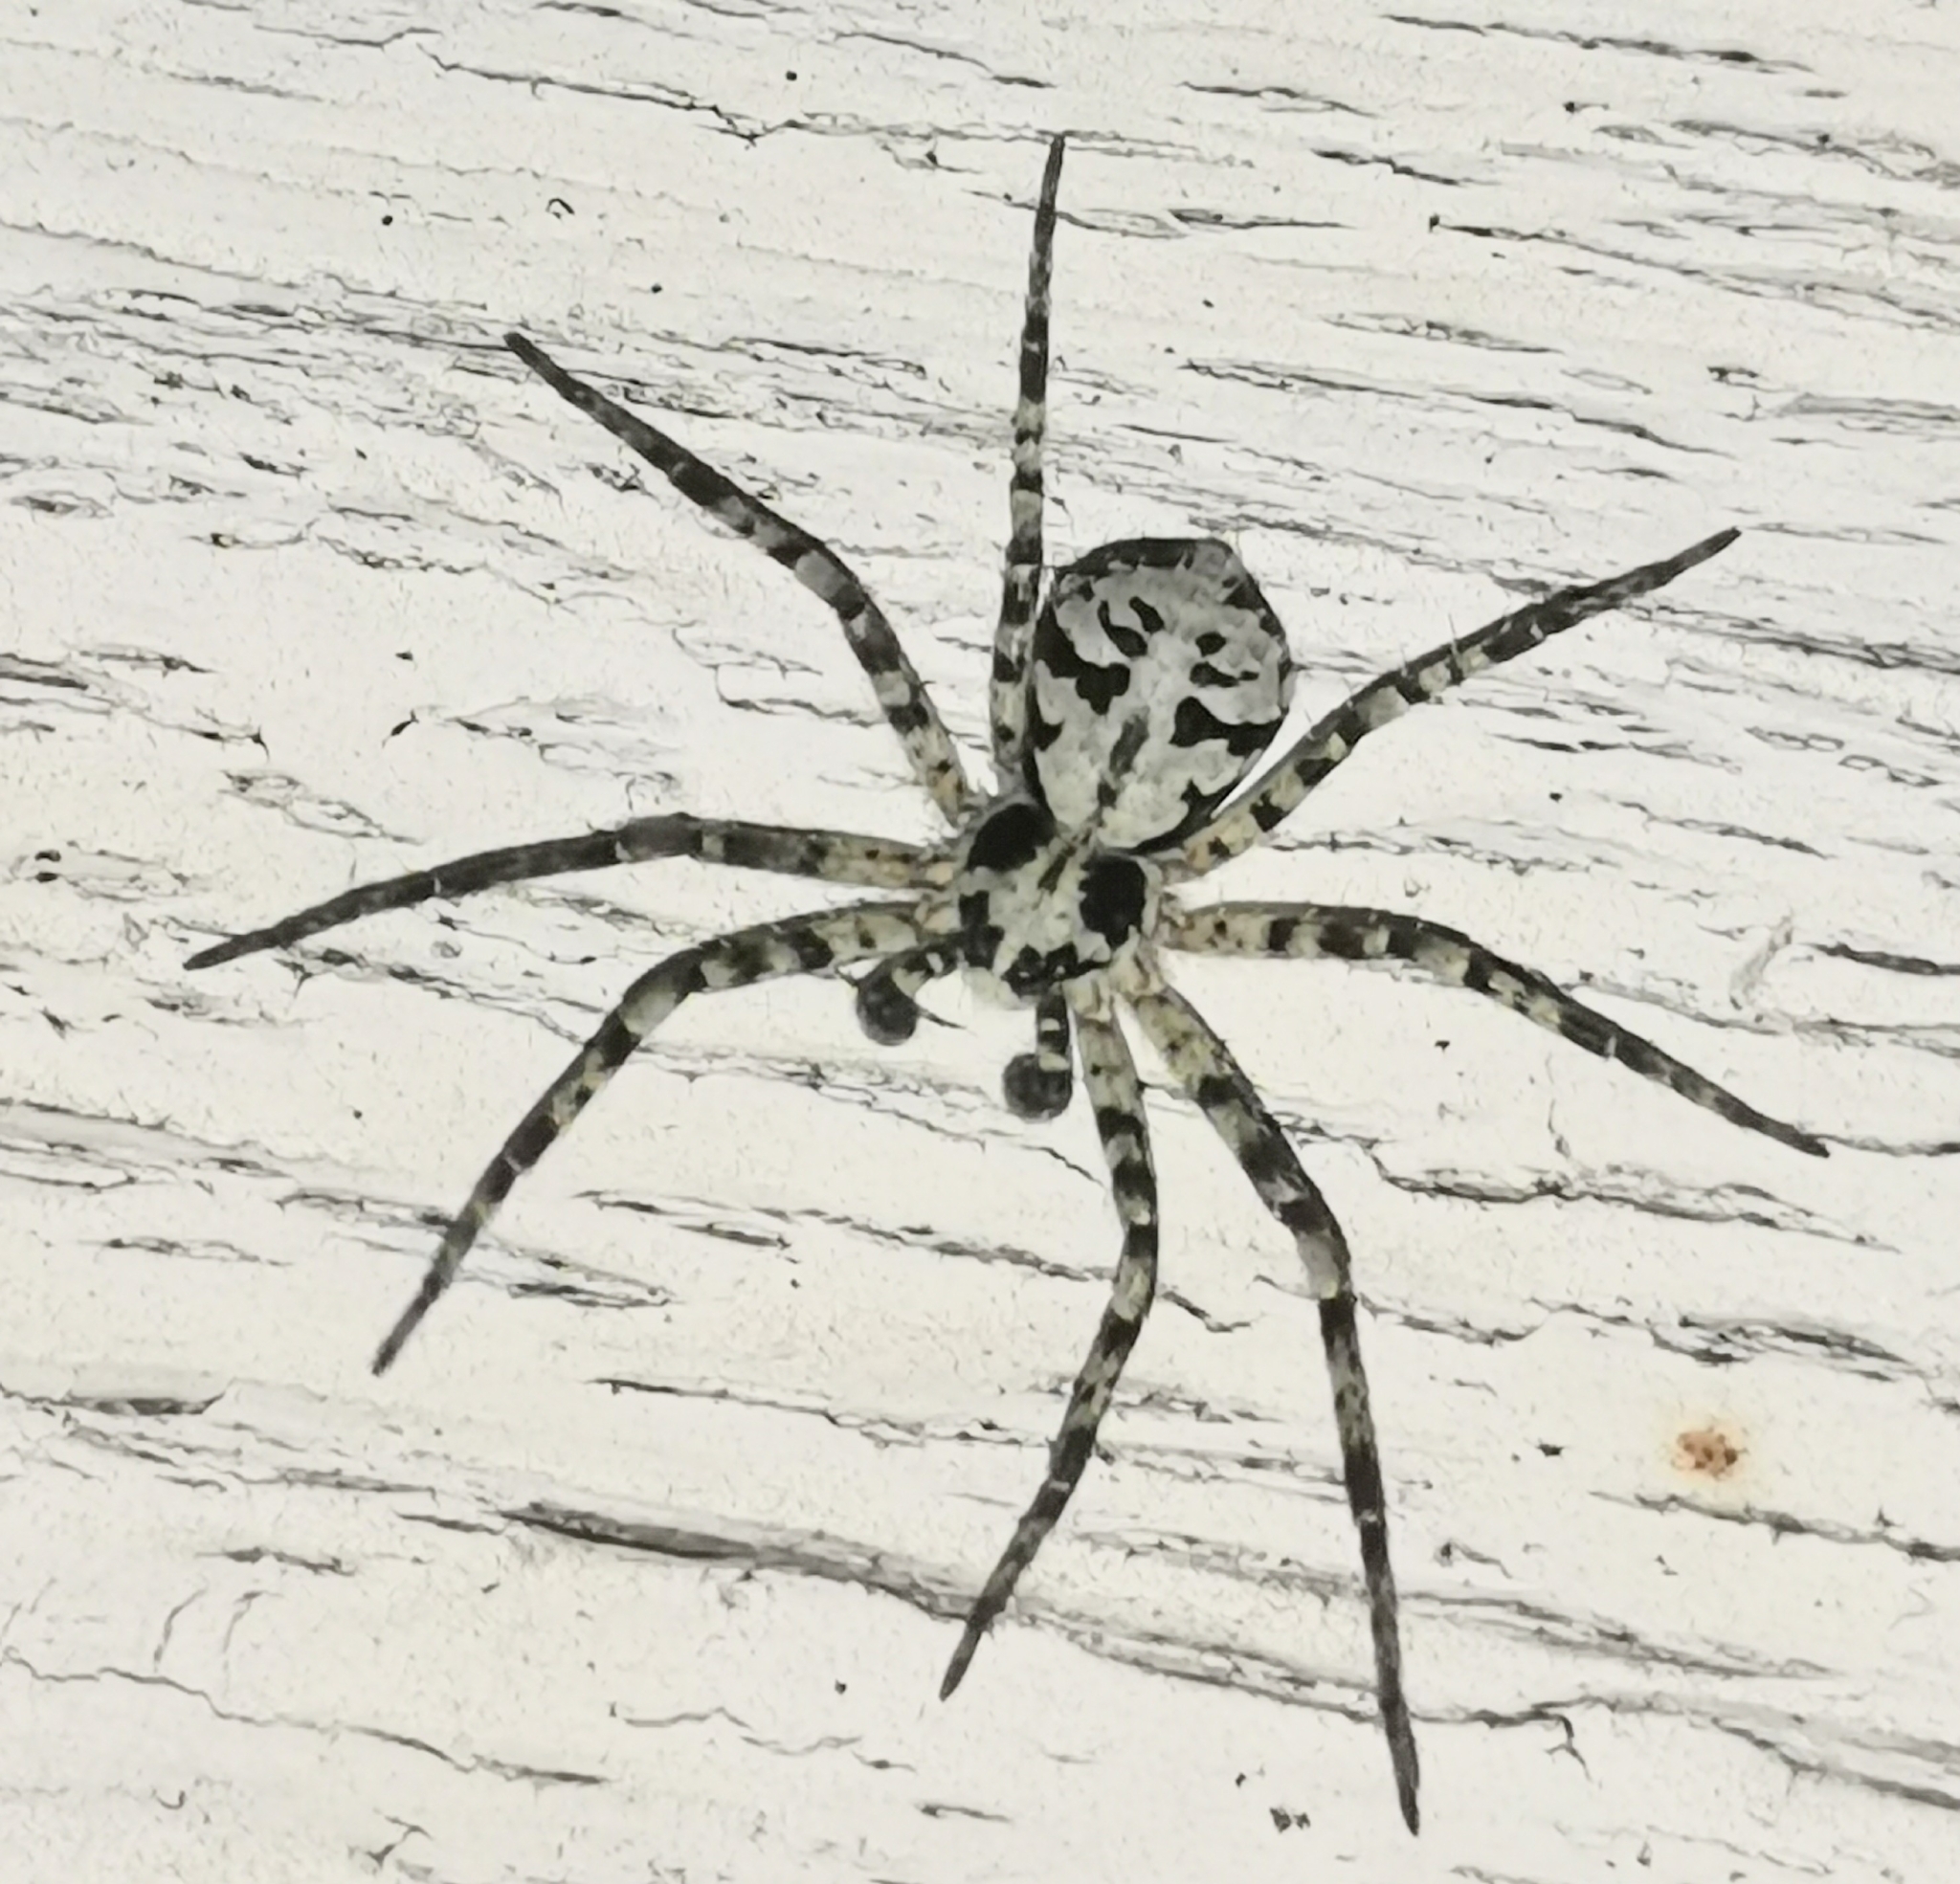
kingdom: Animalia
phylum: Arthropoda
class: Arachnida
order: Araneae
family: Philodromidae
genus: Philodromus
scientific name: Philodromus margaritatus
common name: Lichen running-spider
